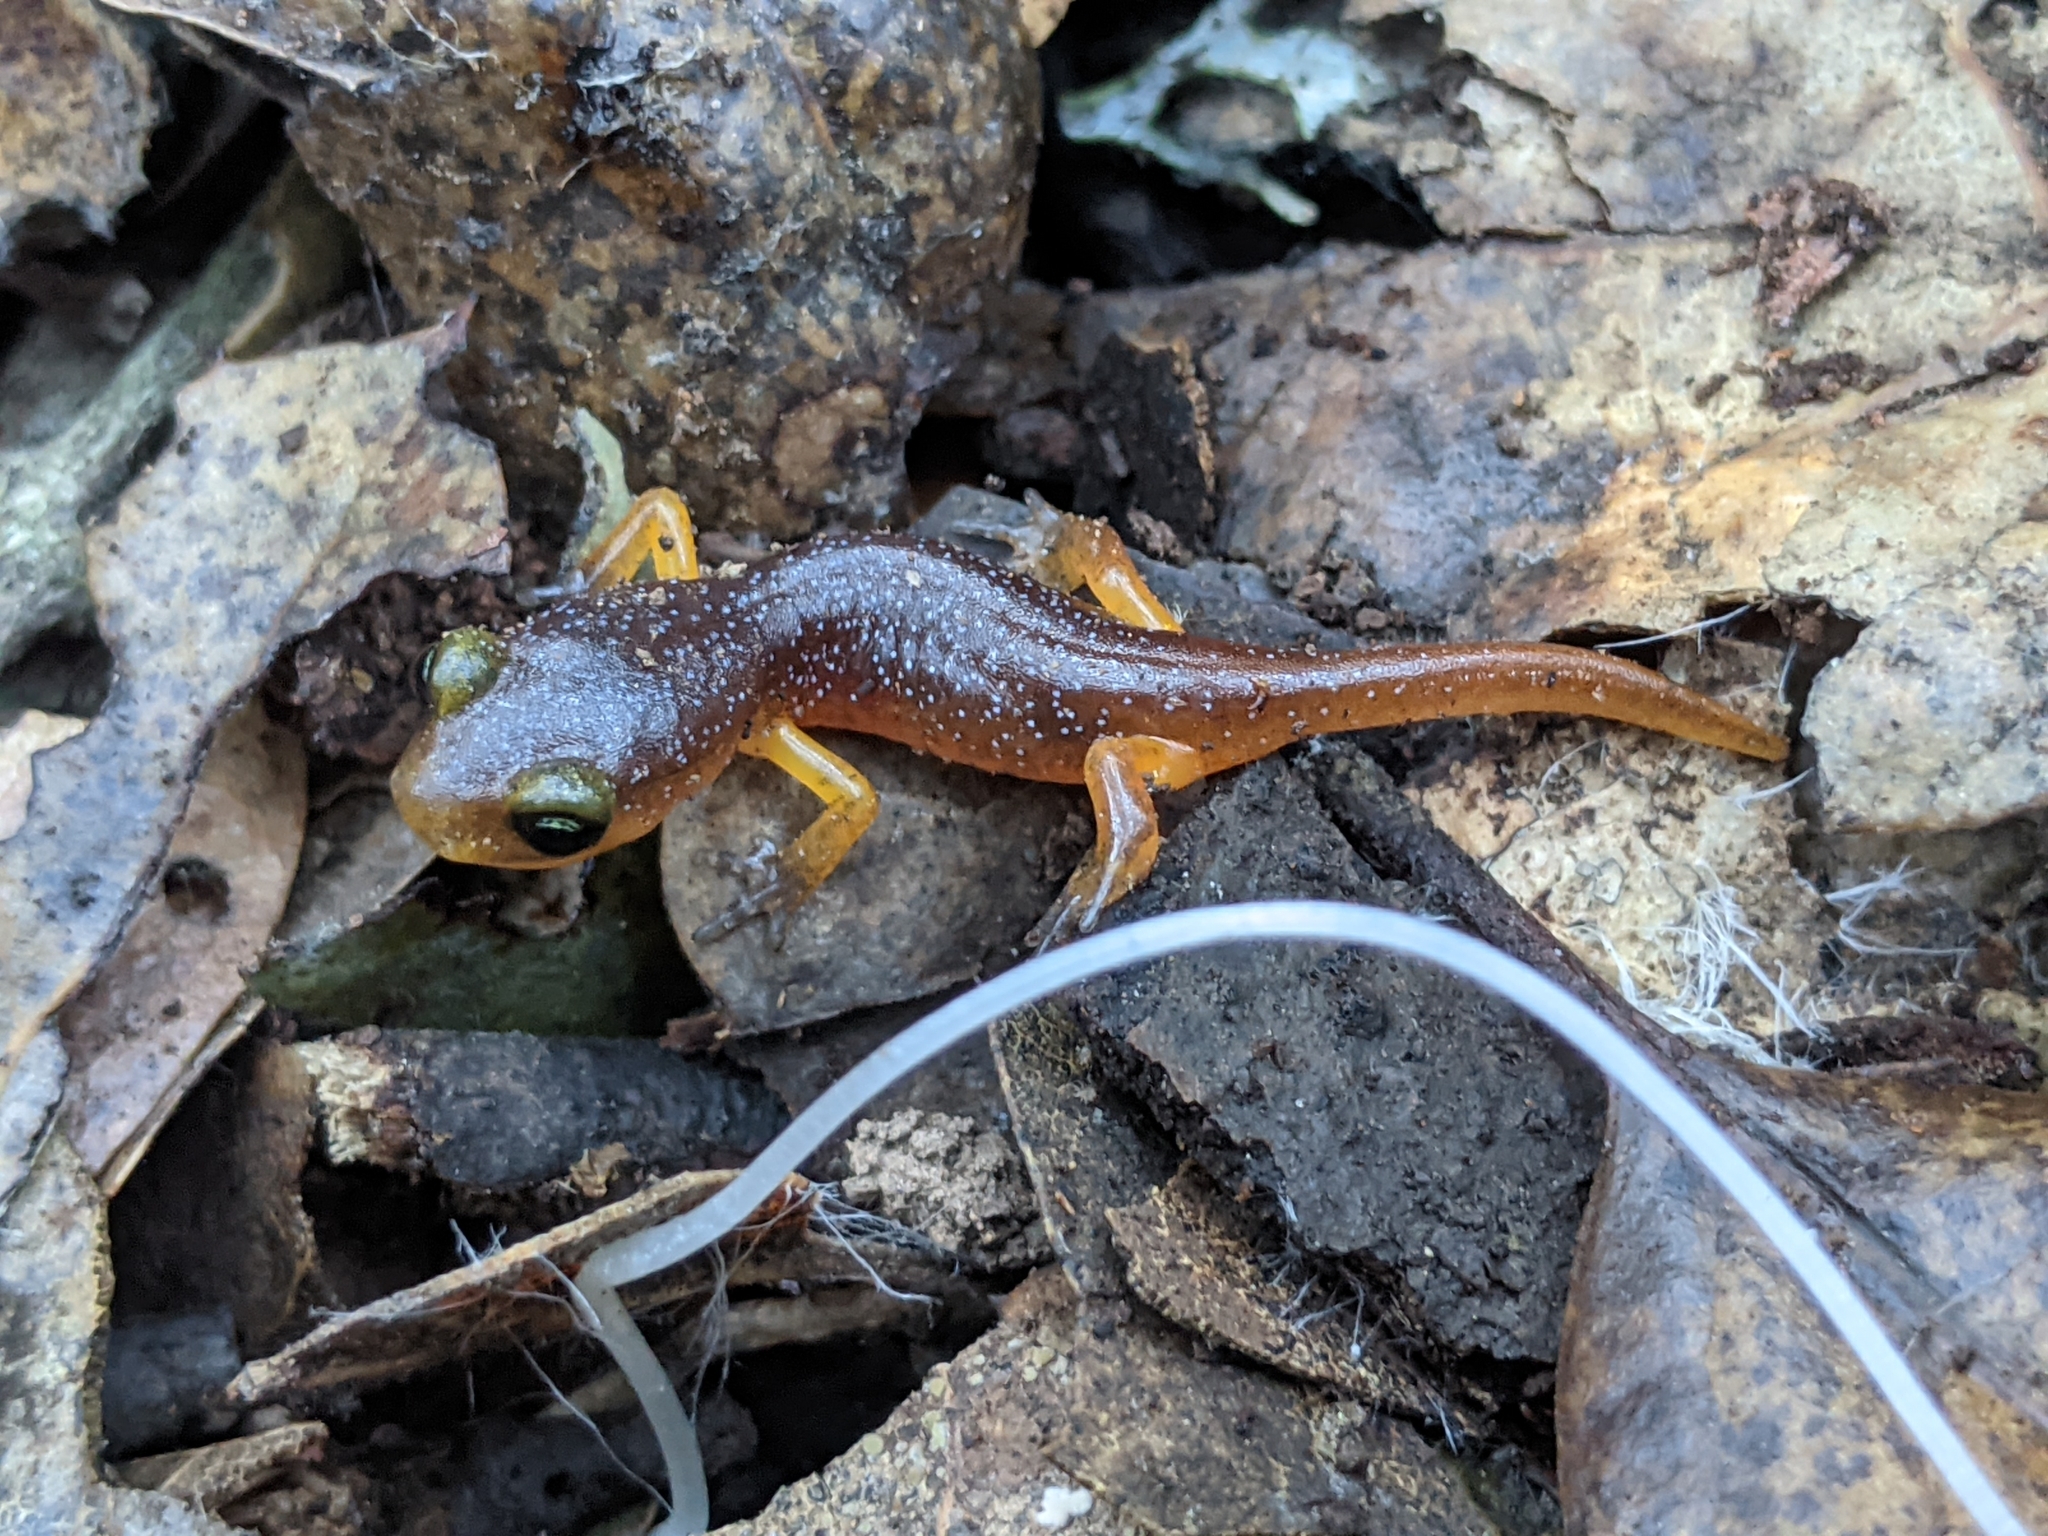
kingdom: Animalia
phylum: Chordata
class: Amphibia
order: Caudata
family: Plethodontidae
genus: Ensatina
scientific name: Ensatina eschscholtzii
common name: Ensatina
